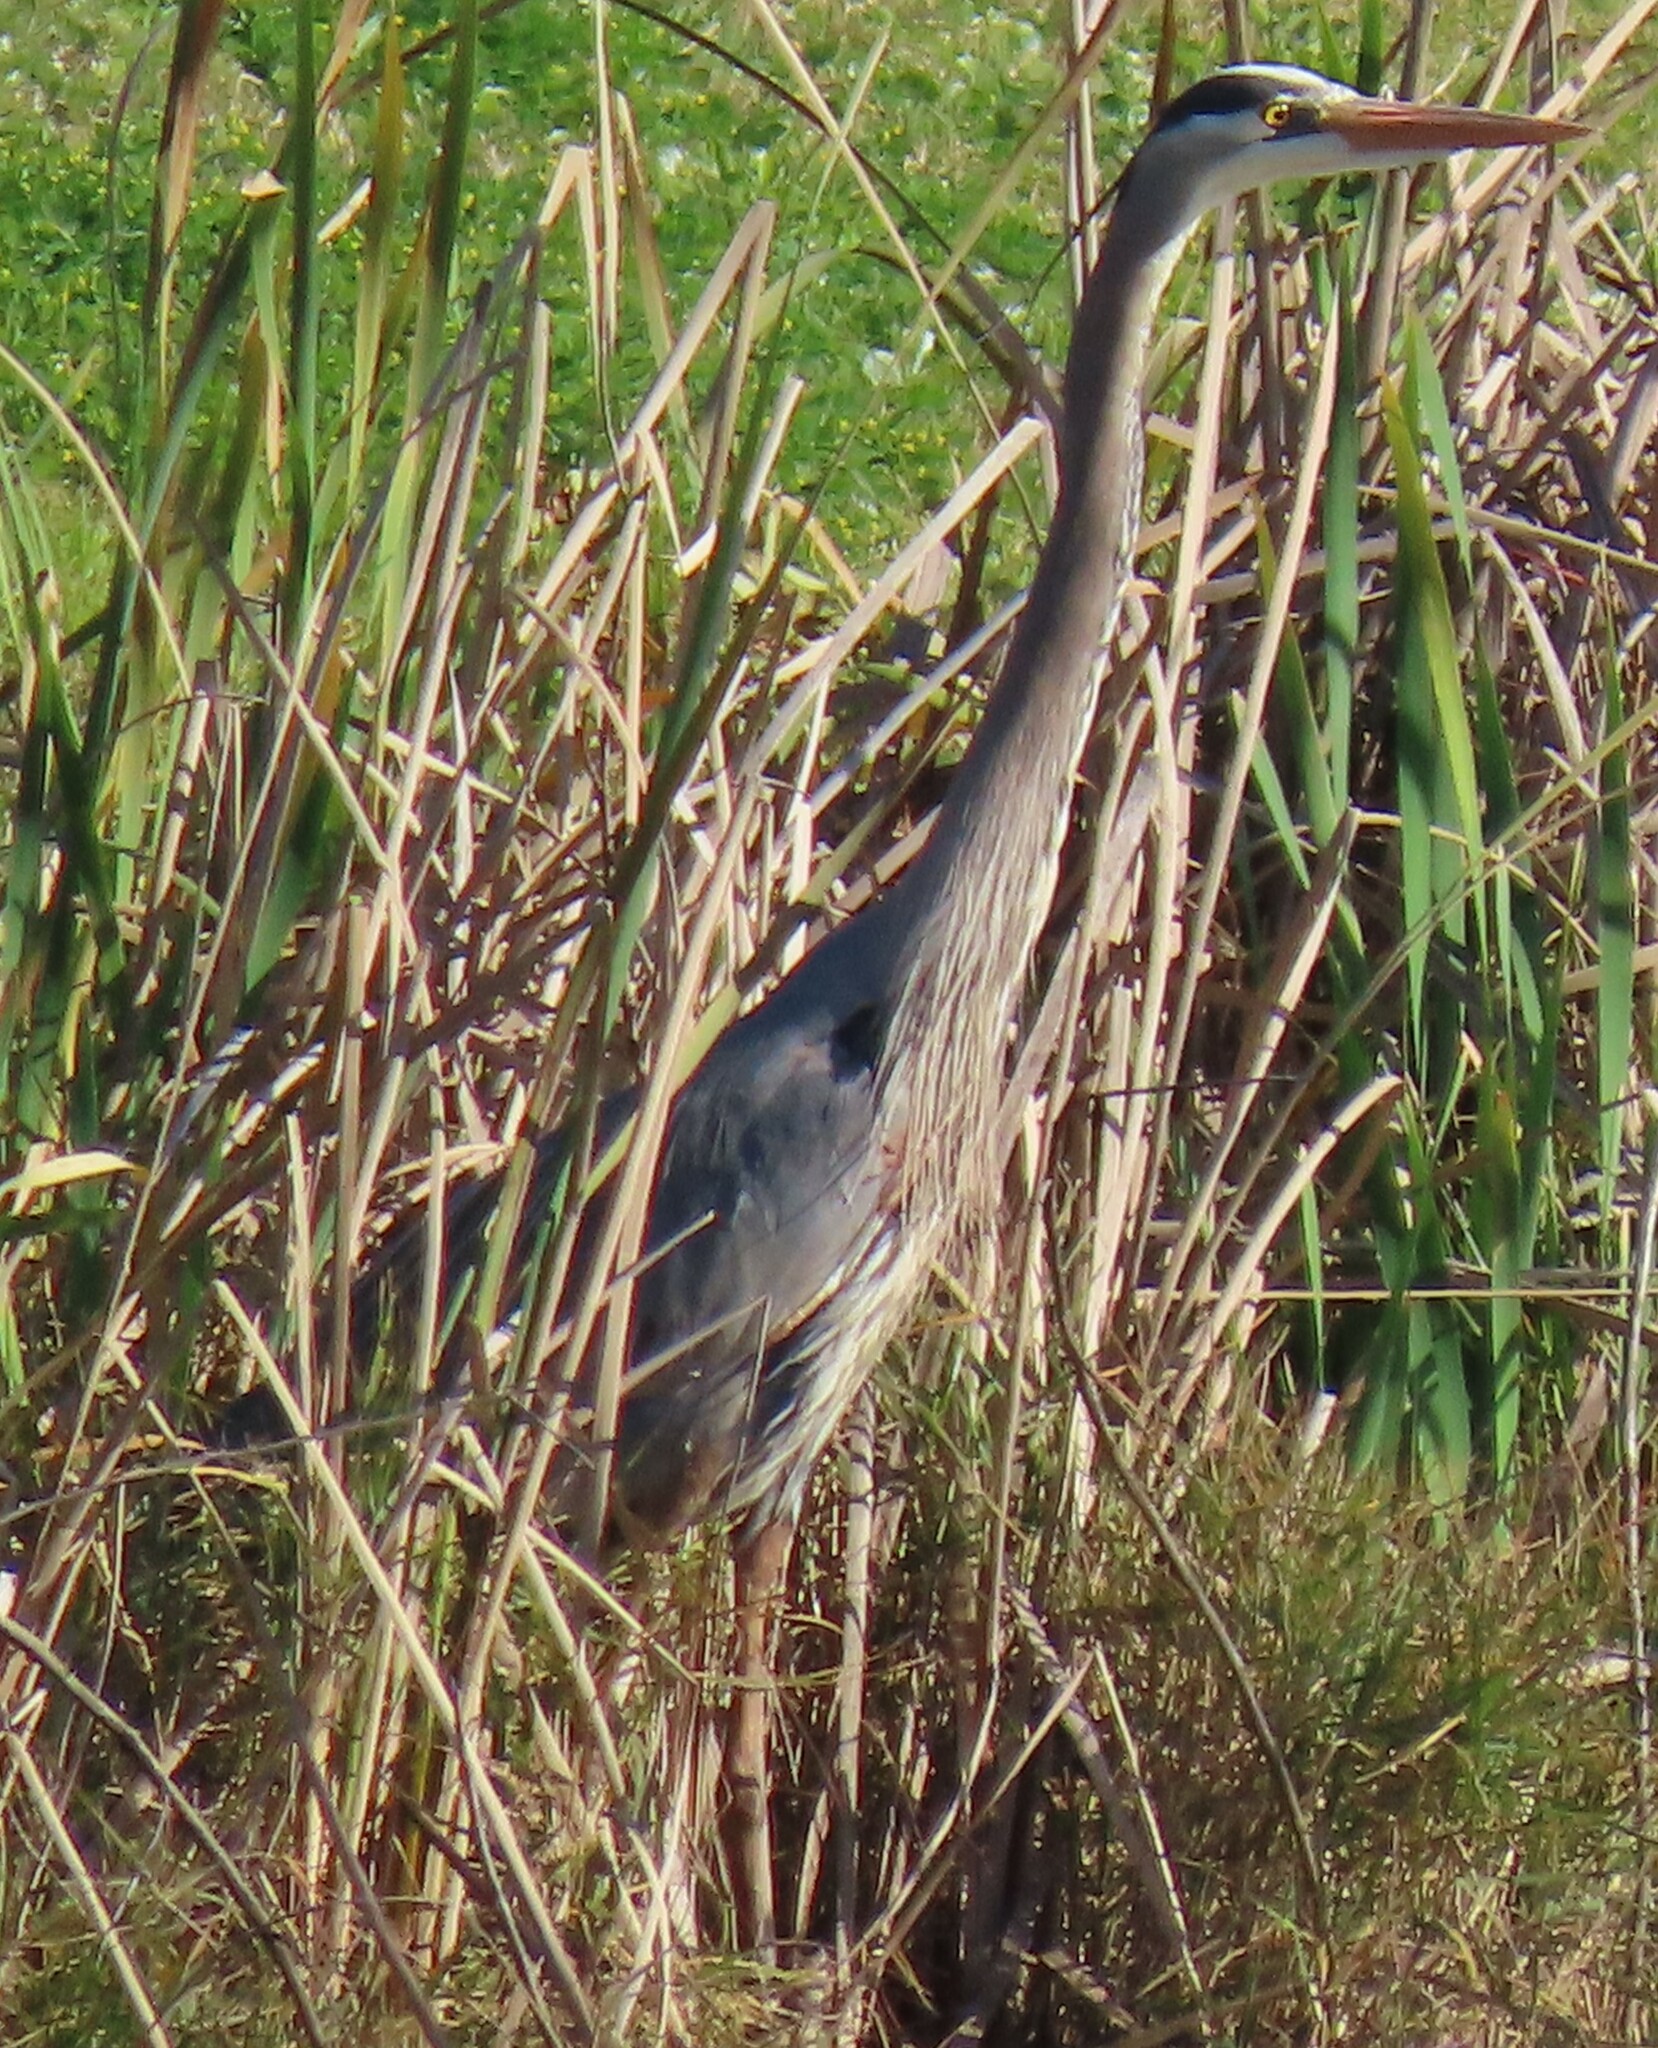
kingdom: Animalia
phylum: Chordata
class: Aves
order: Pelecaniformes
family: Ardeidae
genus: Ardea
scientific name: Ardea herodias
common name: Great blue heron
